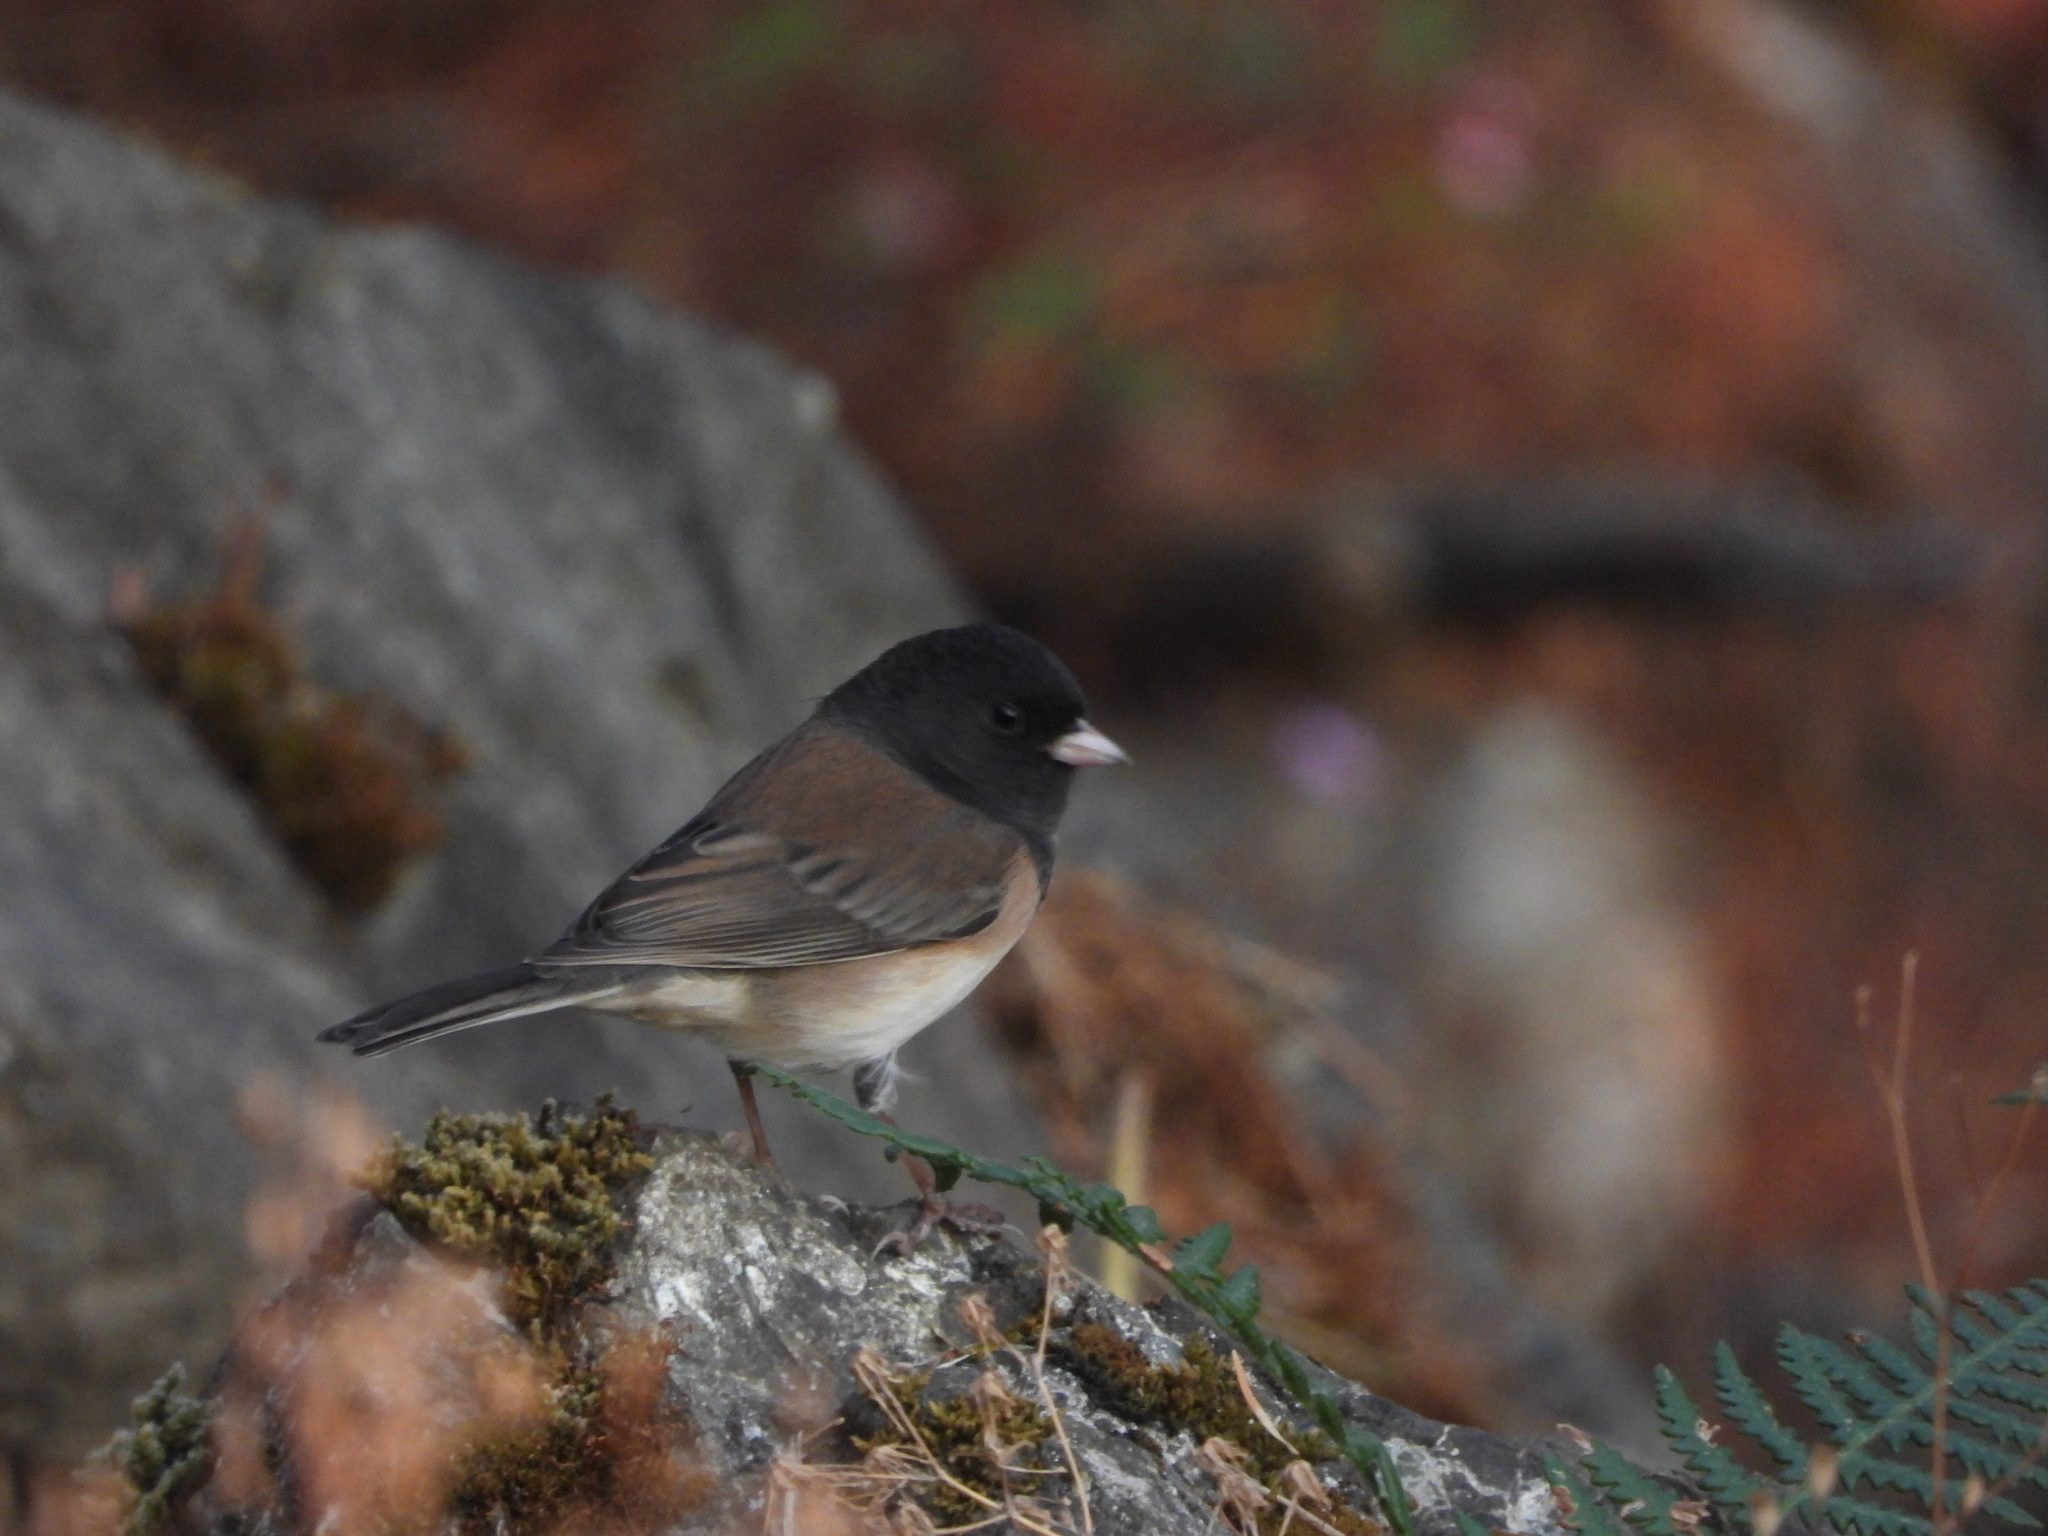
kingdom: Animalia
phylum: Chordata
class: Aves
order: Passeriformes
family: Passerellidae
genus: Junco
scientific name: Junco hyemalis
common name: Dark-eyed junco
